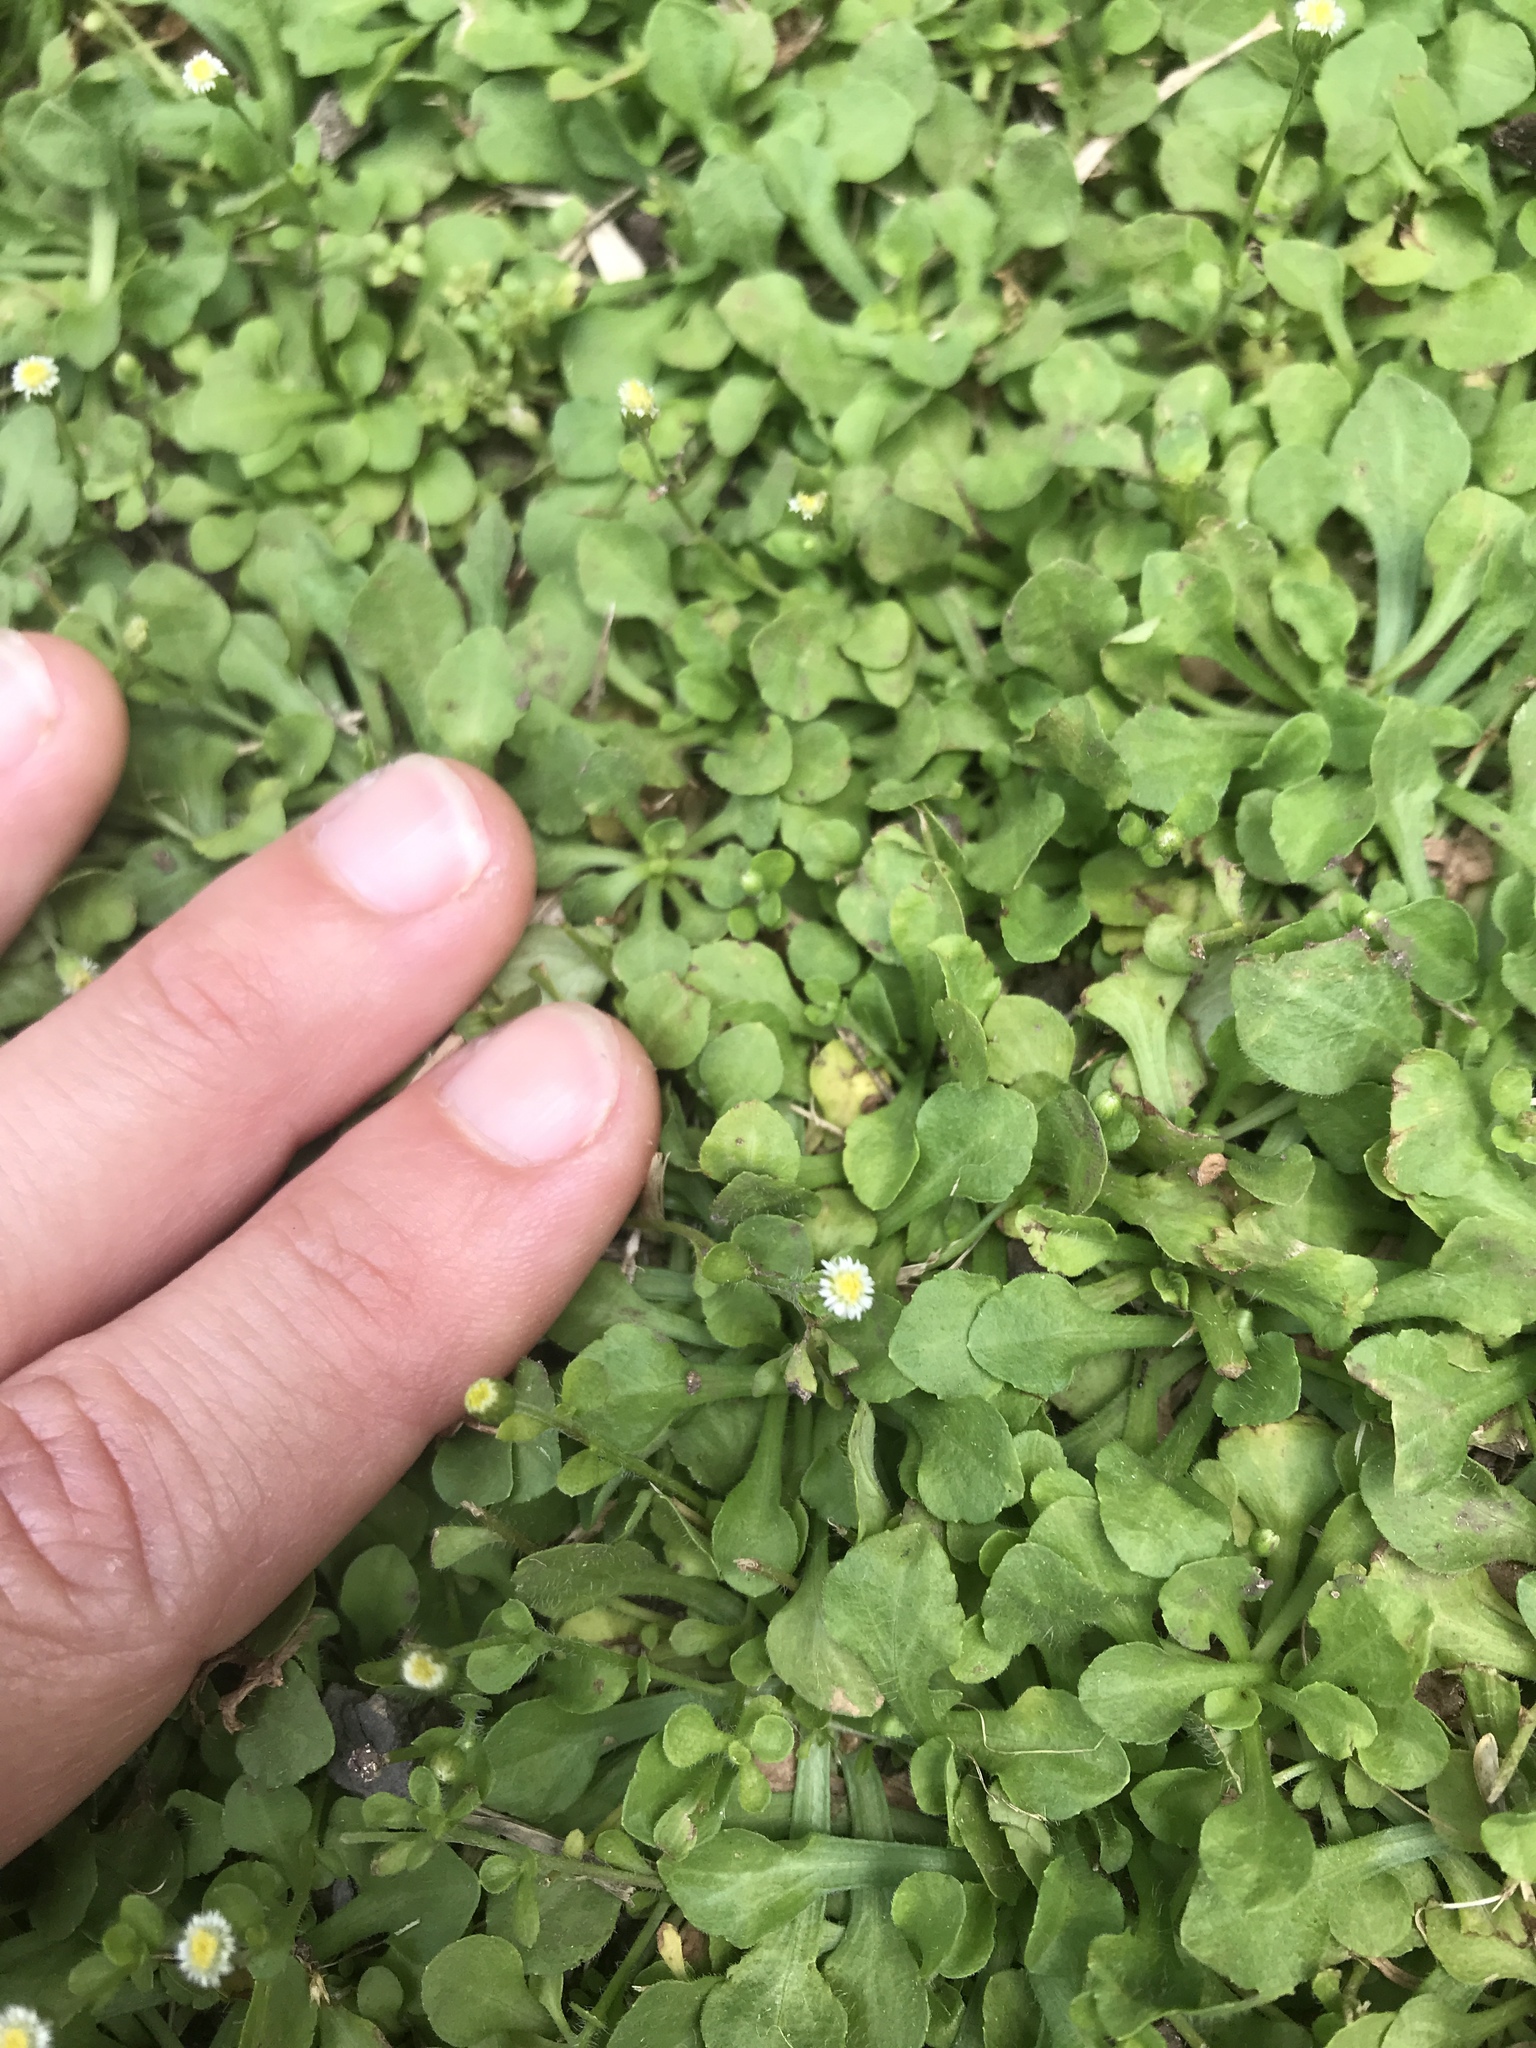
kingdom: Plantae
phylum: Tracheophyta
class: Magnoliopsida
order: Asterales
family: Asteraceae
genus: Erigeron
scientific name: Erigeron bellioides
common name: Bellorita
